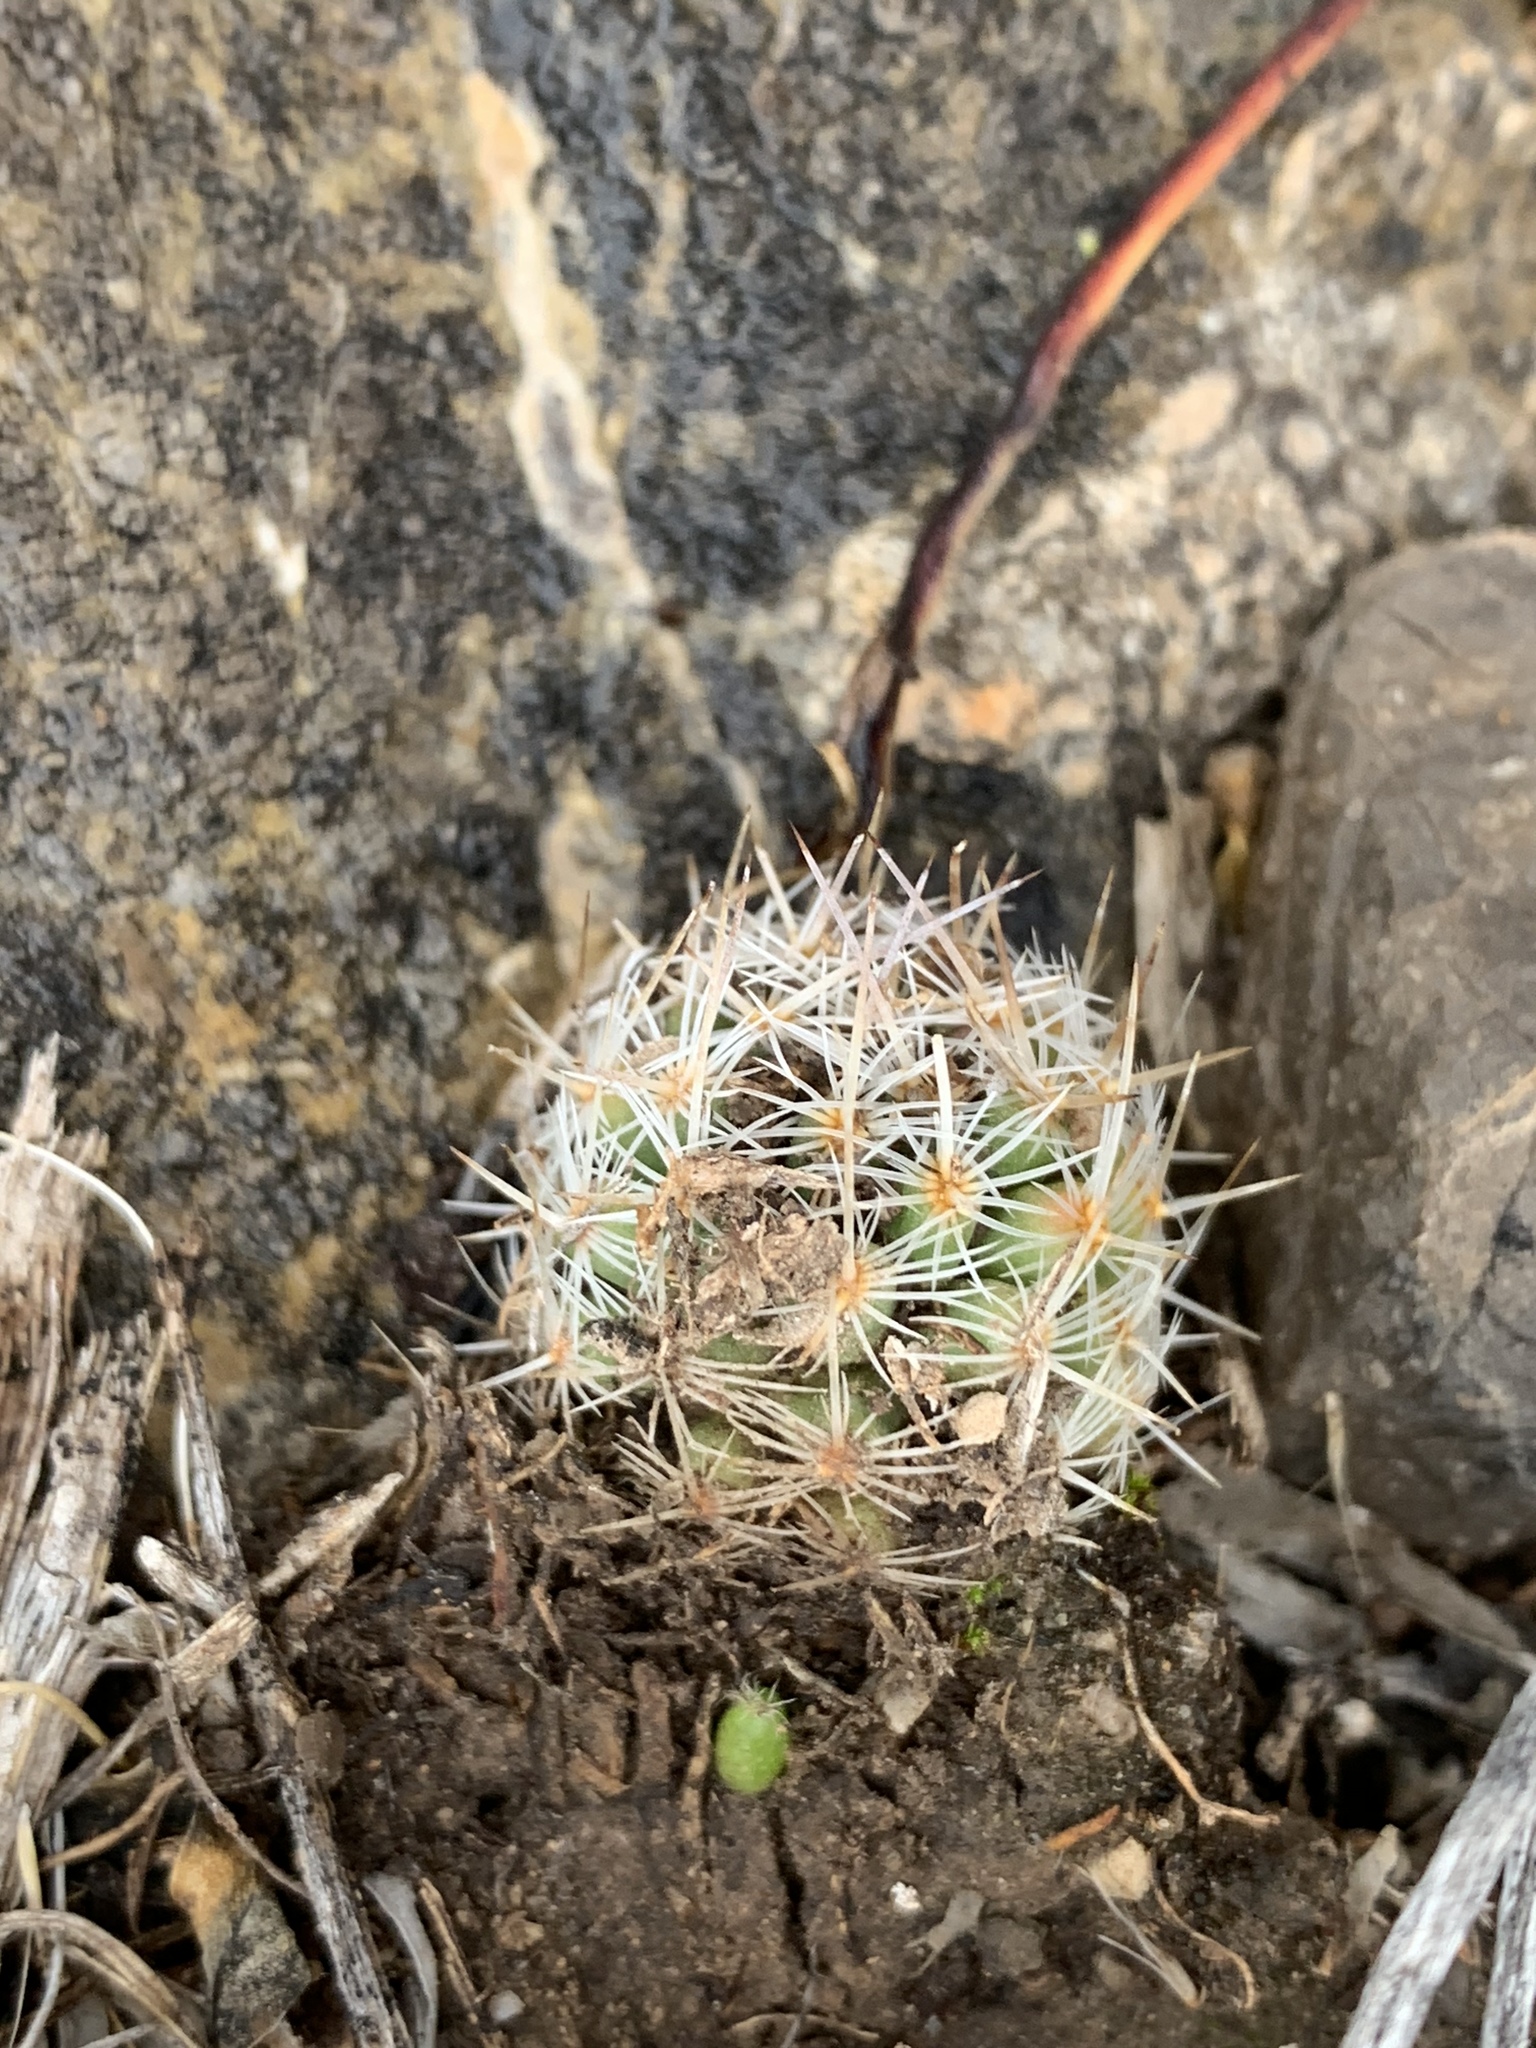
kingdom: Plantae
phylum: Tracheophyta
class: Magnoliopsida
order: Caryophyllales
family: Cactaceae
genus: Pelecyphora
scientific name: Pelecyphora tuberculosa
